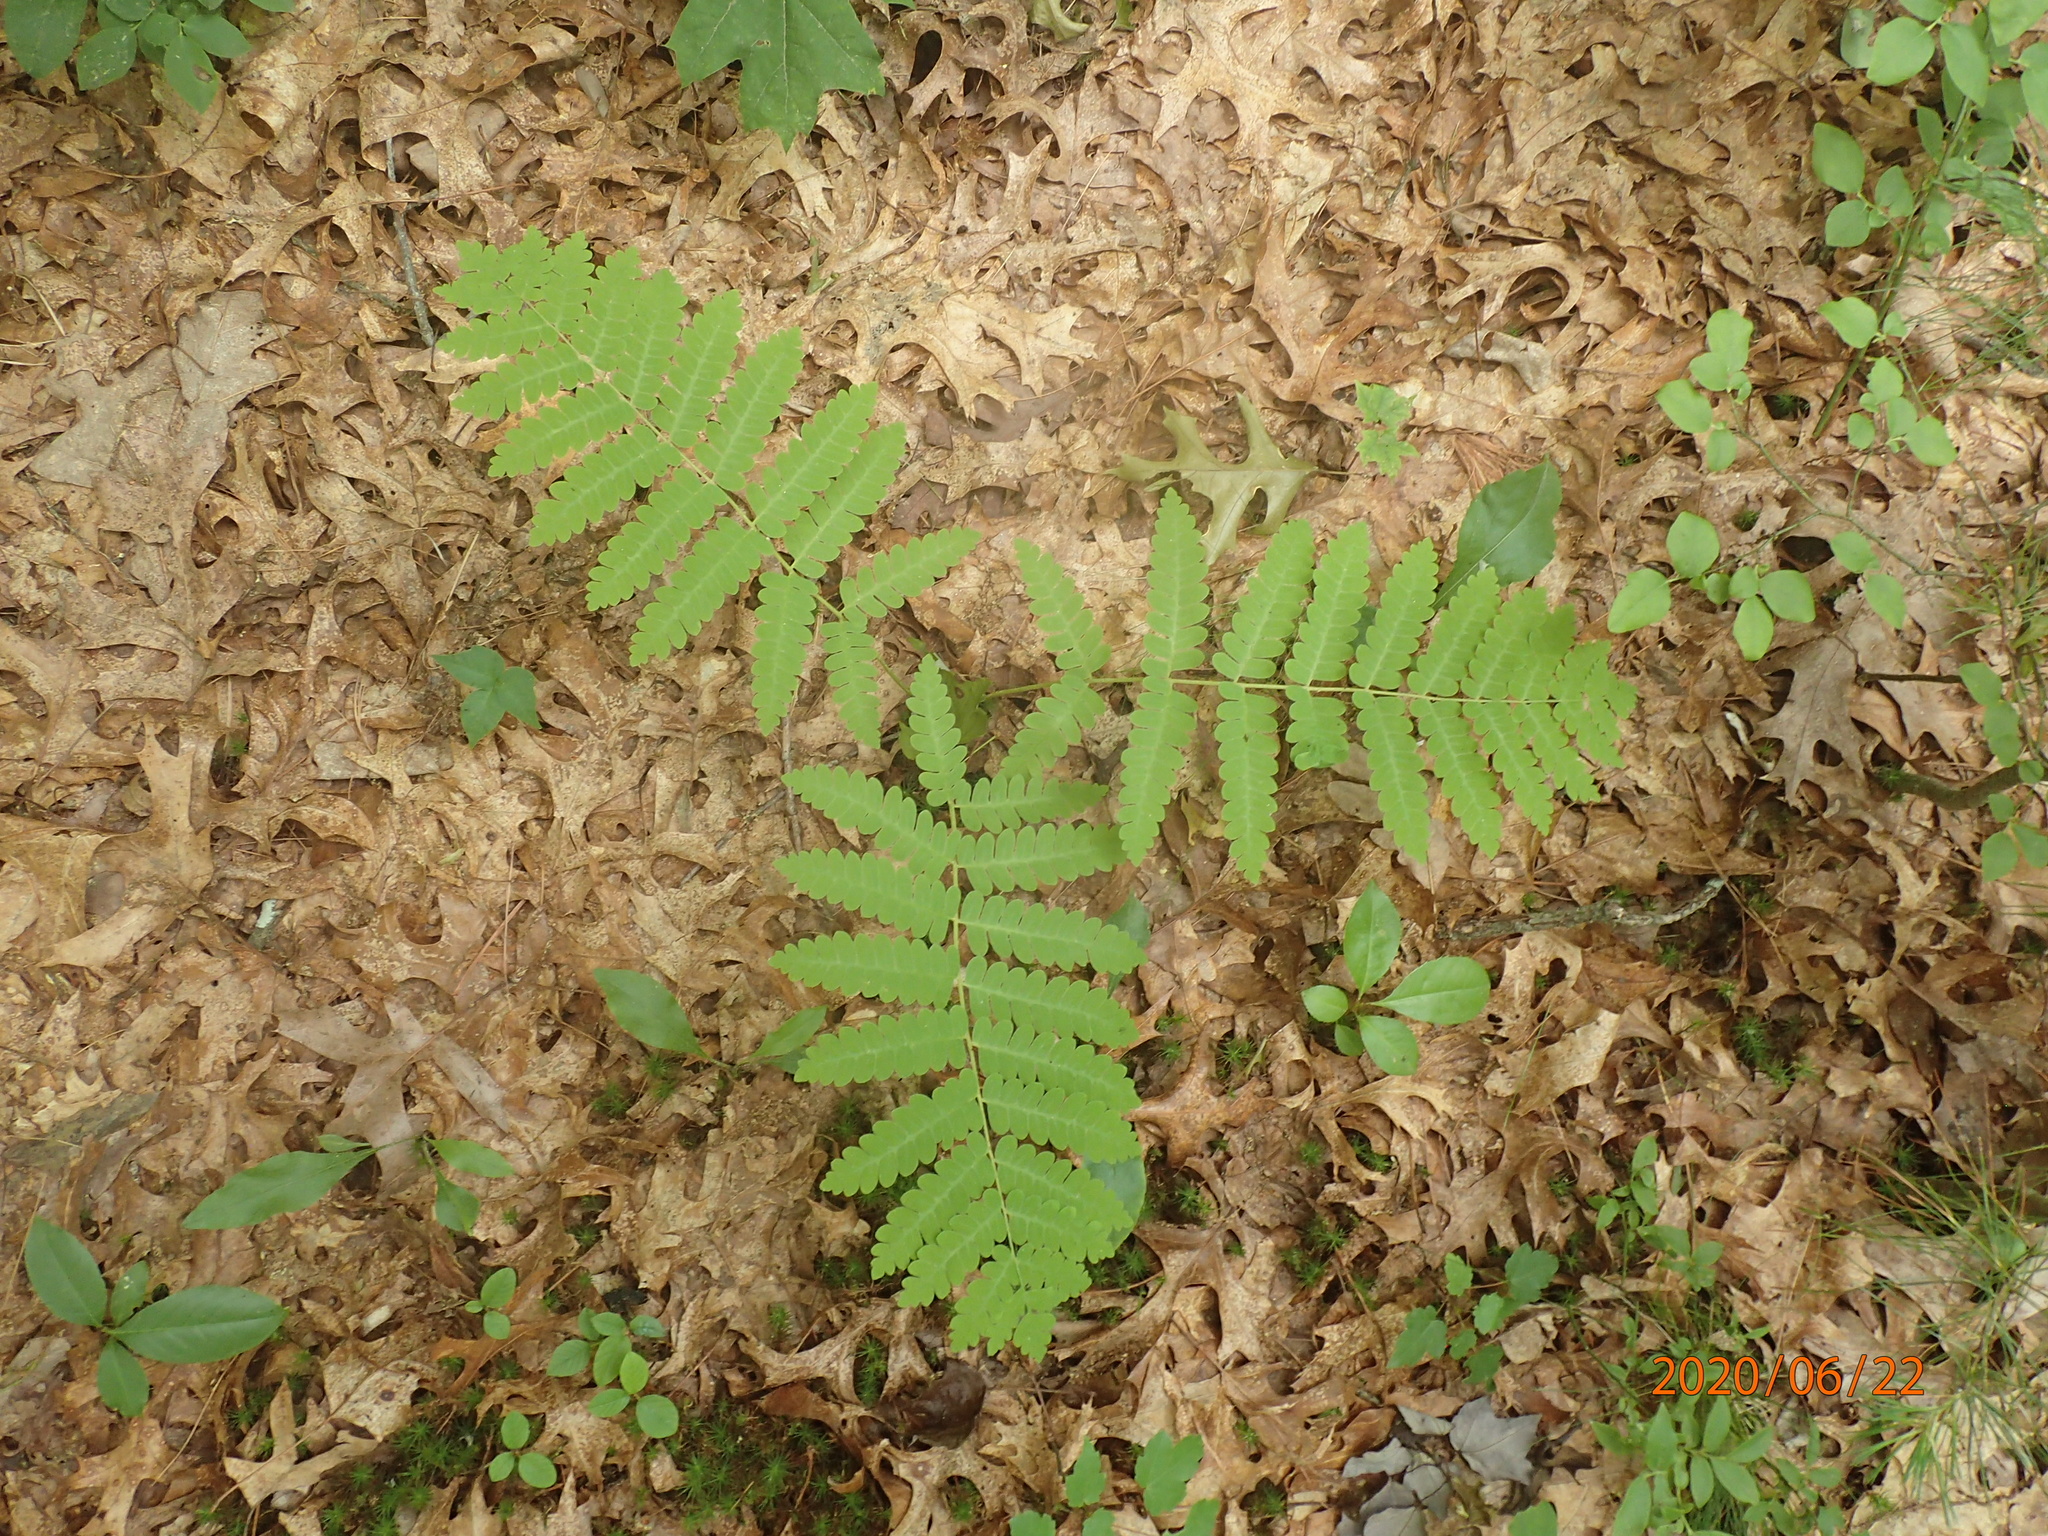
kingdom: Plantae
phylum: Tracheophyta
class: Polypodiopsida
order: Osmundales
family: Osmundaceae
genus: Claytosmunda
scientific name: Claytosmunda claytoniana
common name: Clayton's fern
